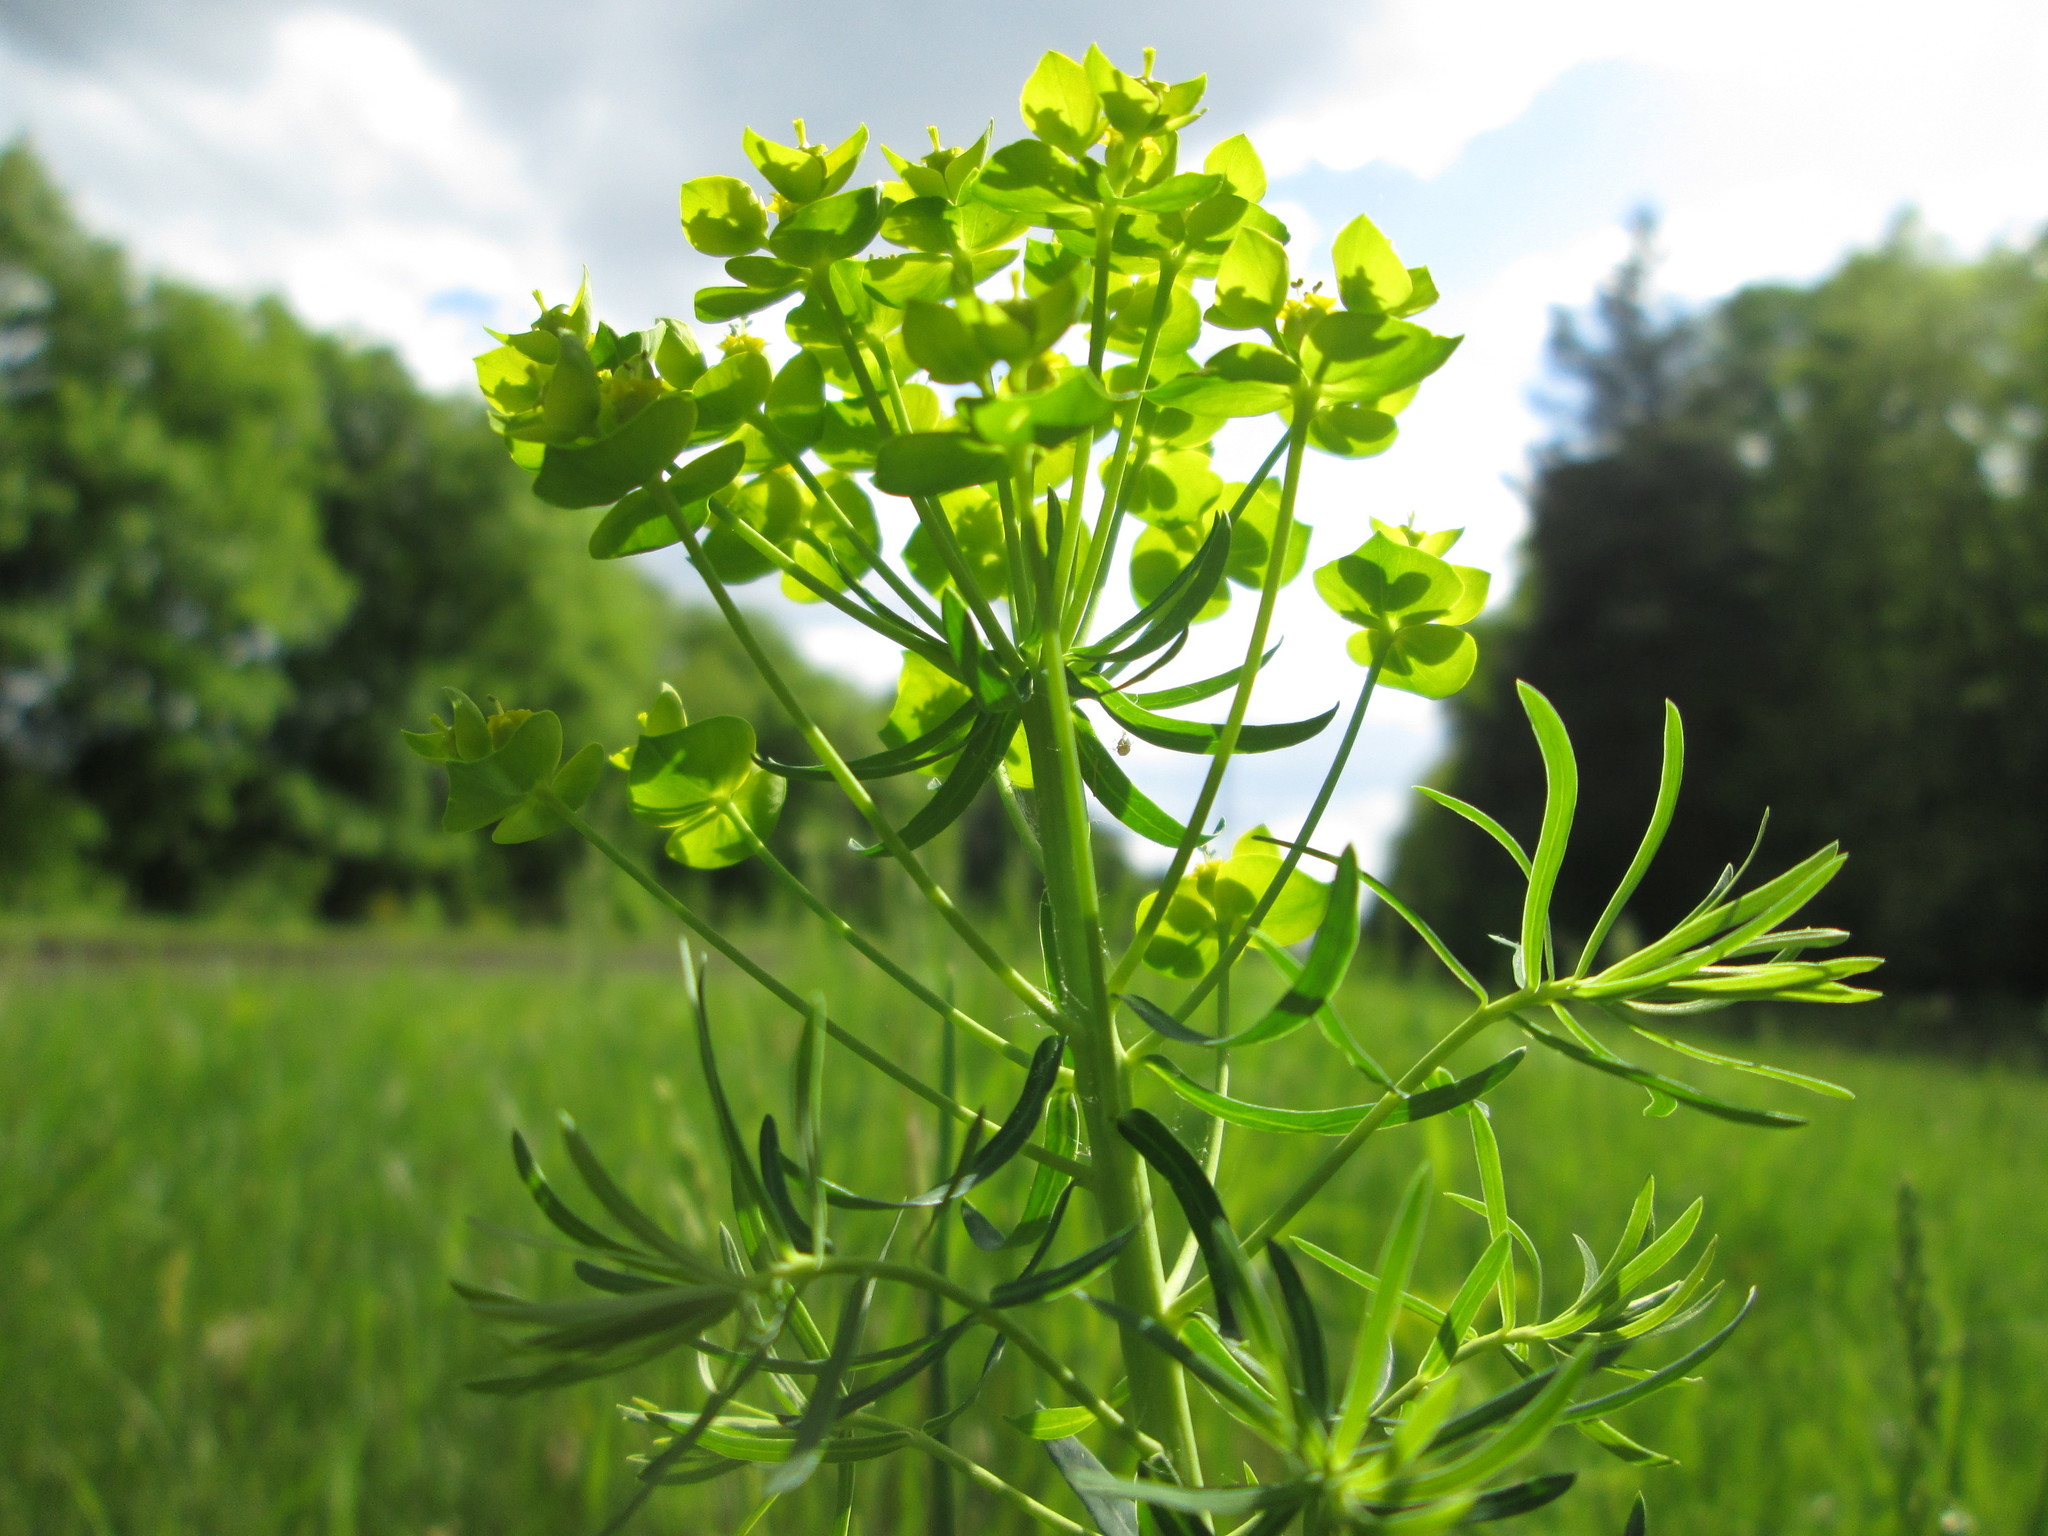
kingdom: Plantae
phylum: Tracheophyta
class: Magnoliopsida
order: Malpighiales
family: Euphorbiaceae
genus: Euphorbia
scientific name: Euphorbia cyparissias
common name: Cypress spurge
